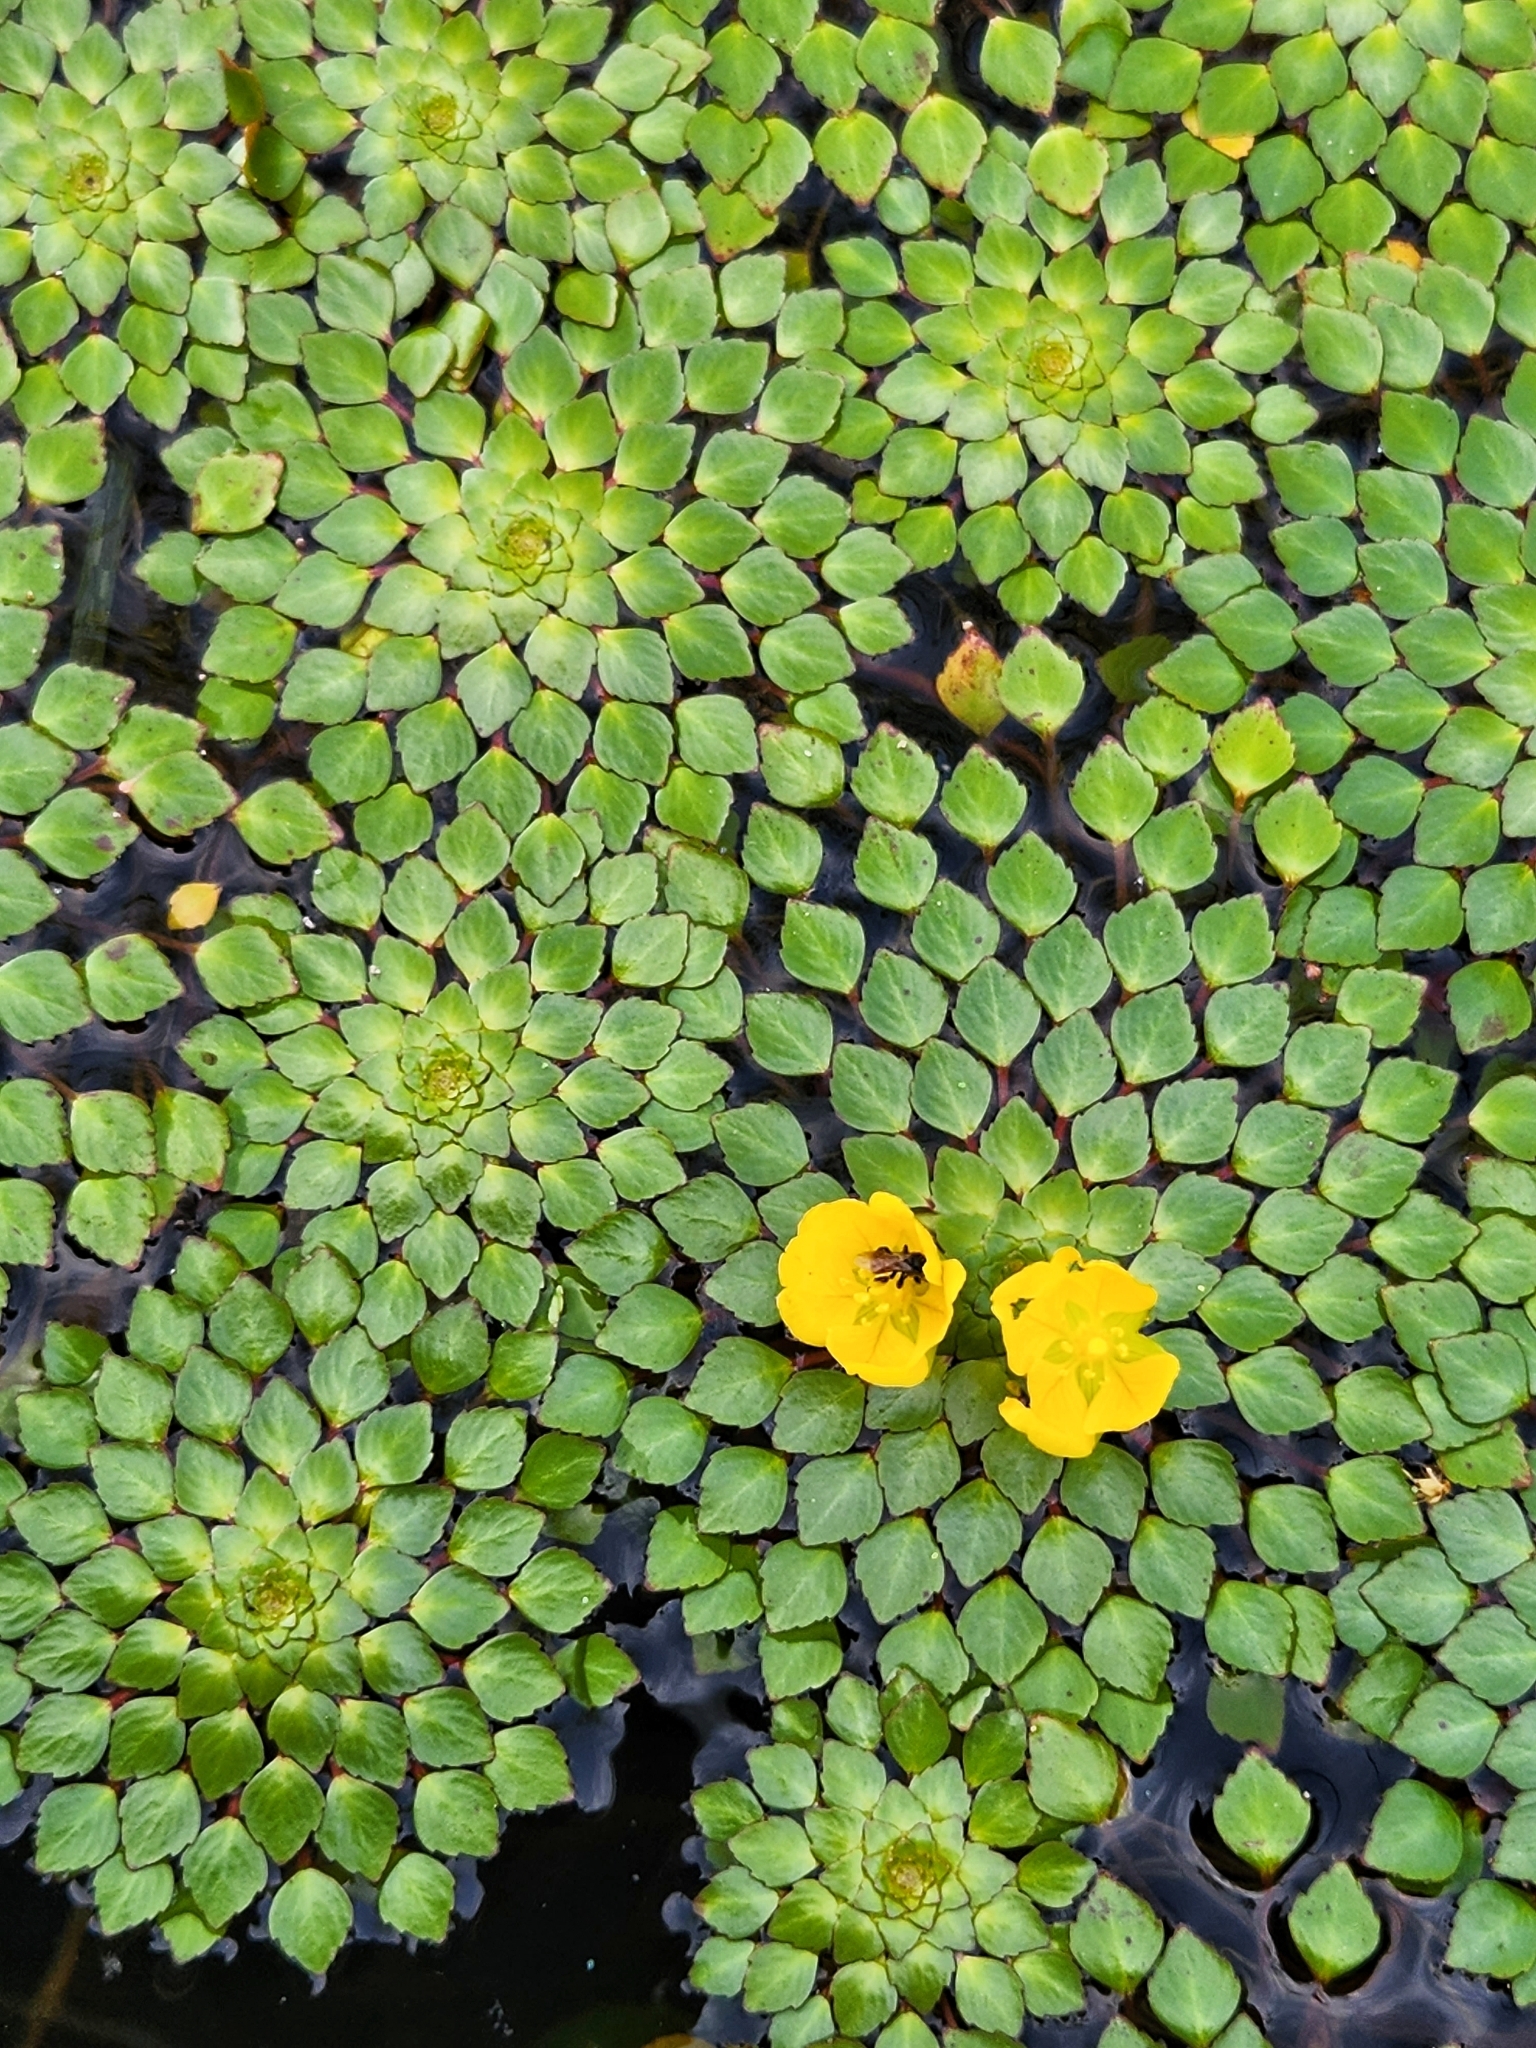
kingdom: Plantae
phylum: Tracheophyta
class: Magnoliopsida
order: Myrtales
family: Onagraceae
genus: Ludwigia
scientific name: Ludwigia sedioides
